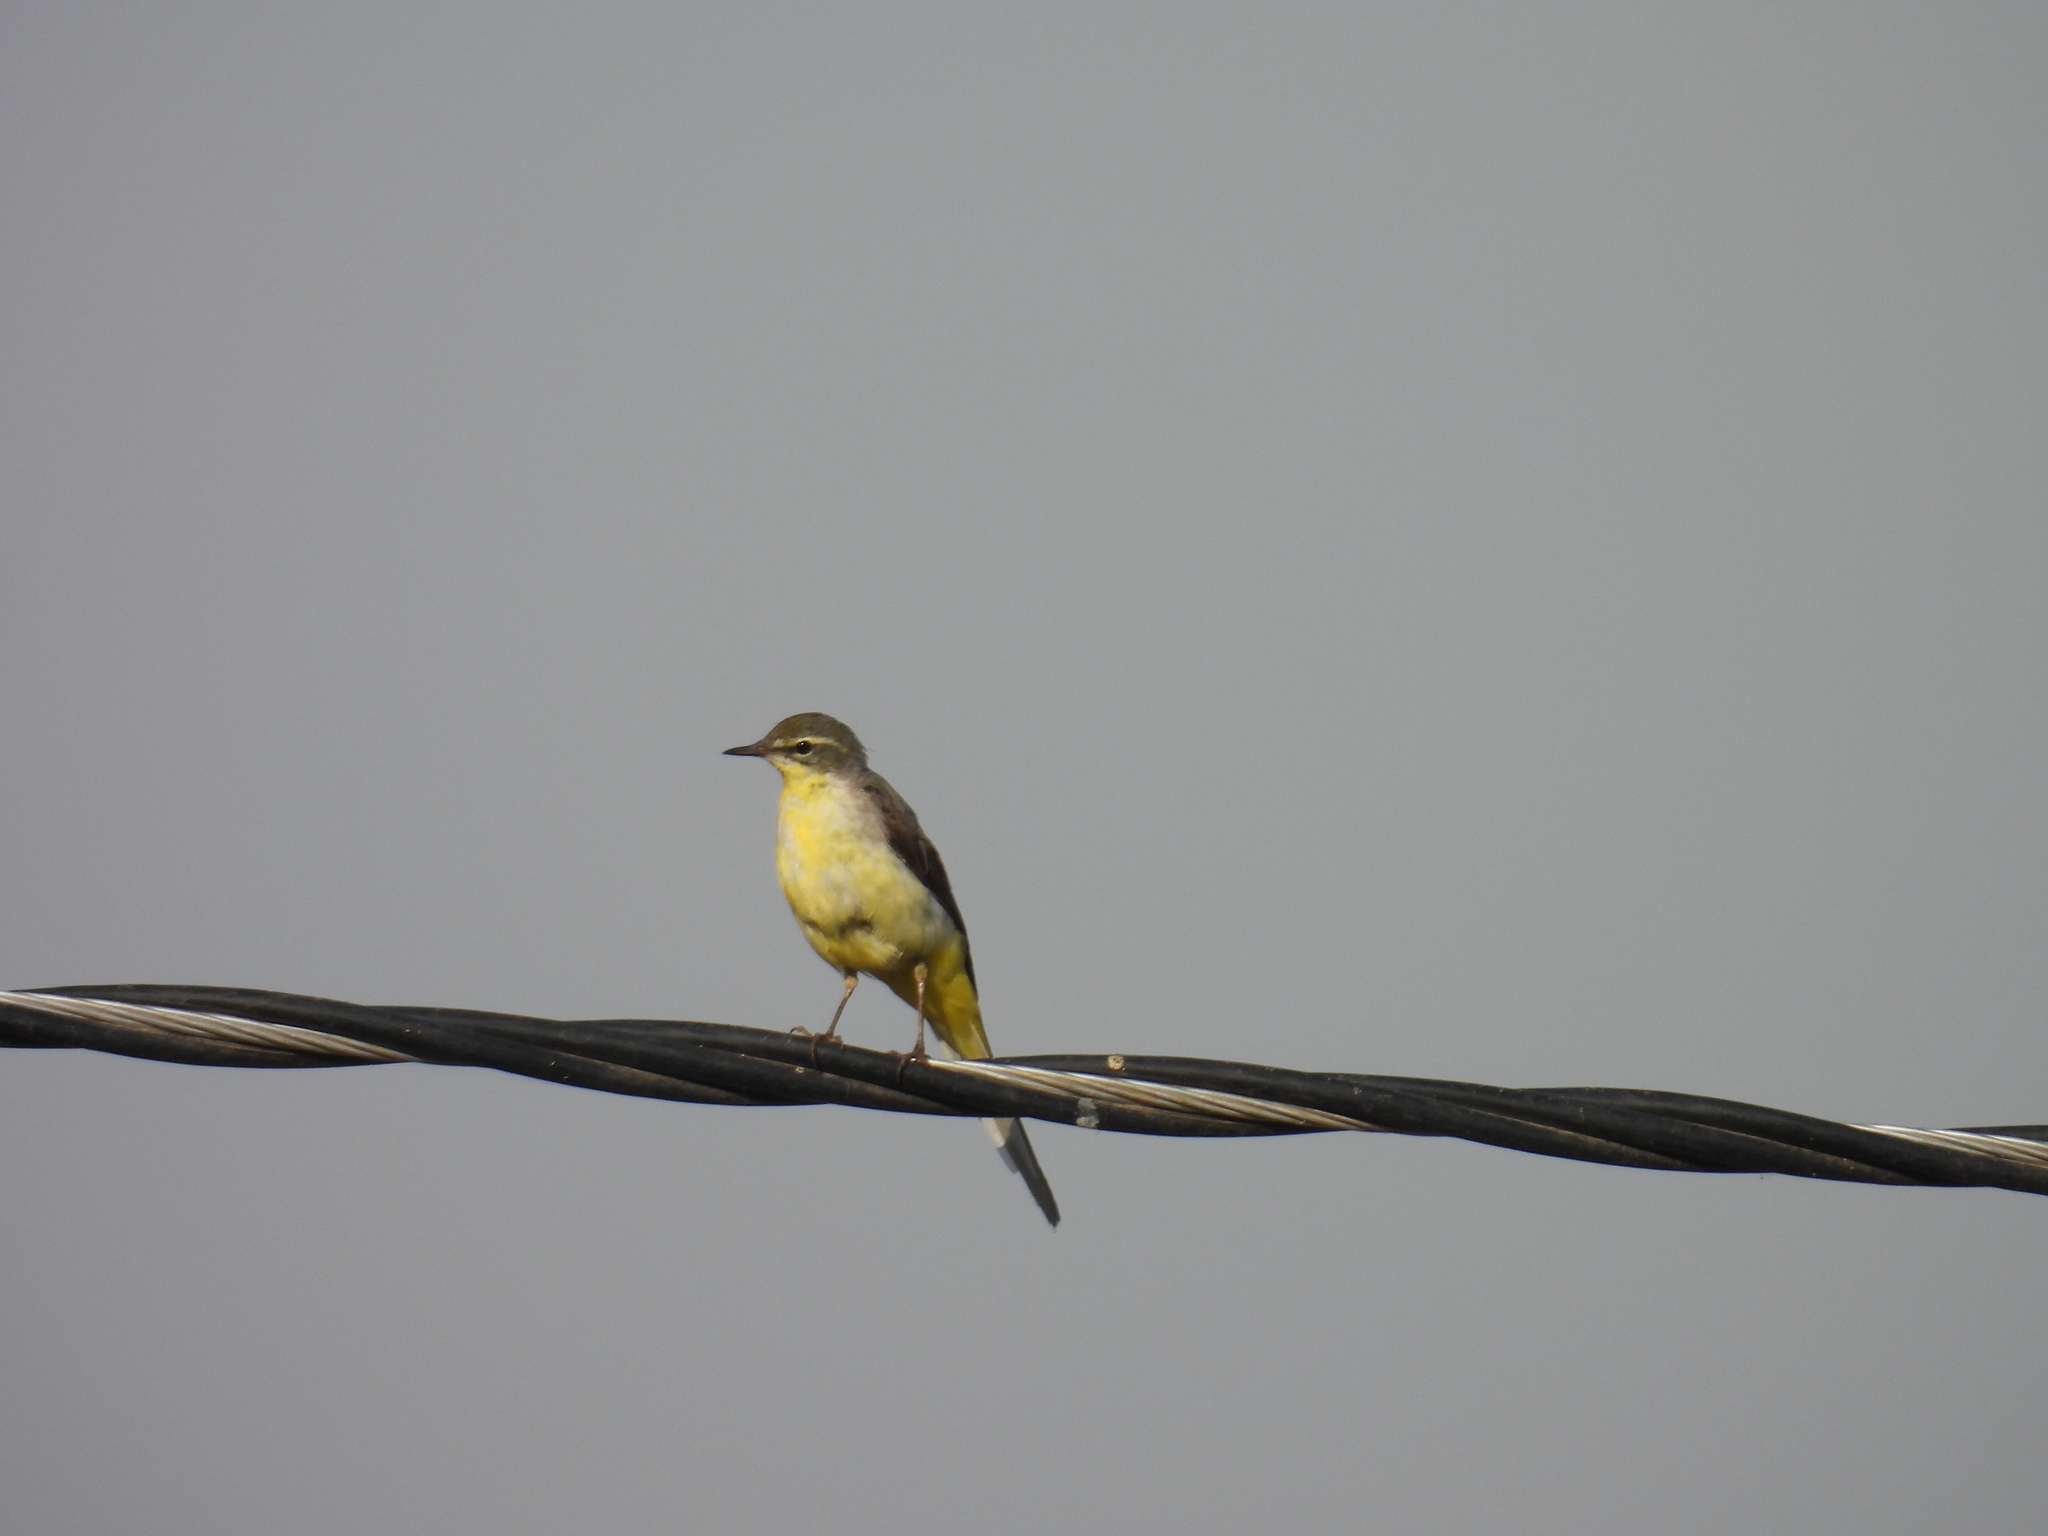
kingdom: Animalia
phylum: Chordata
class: Aves
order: Passeriformes
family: Motacillidae
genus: Motacilla
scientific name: Motacilla flava
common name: Western yellow wagtail
